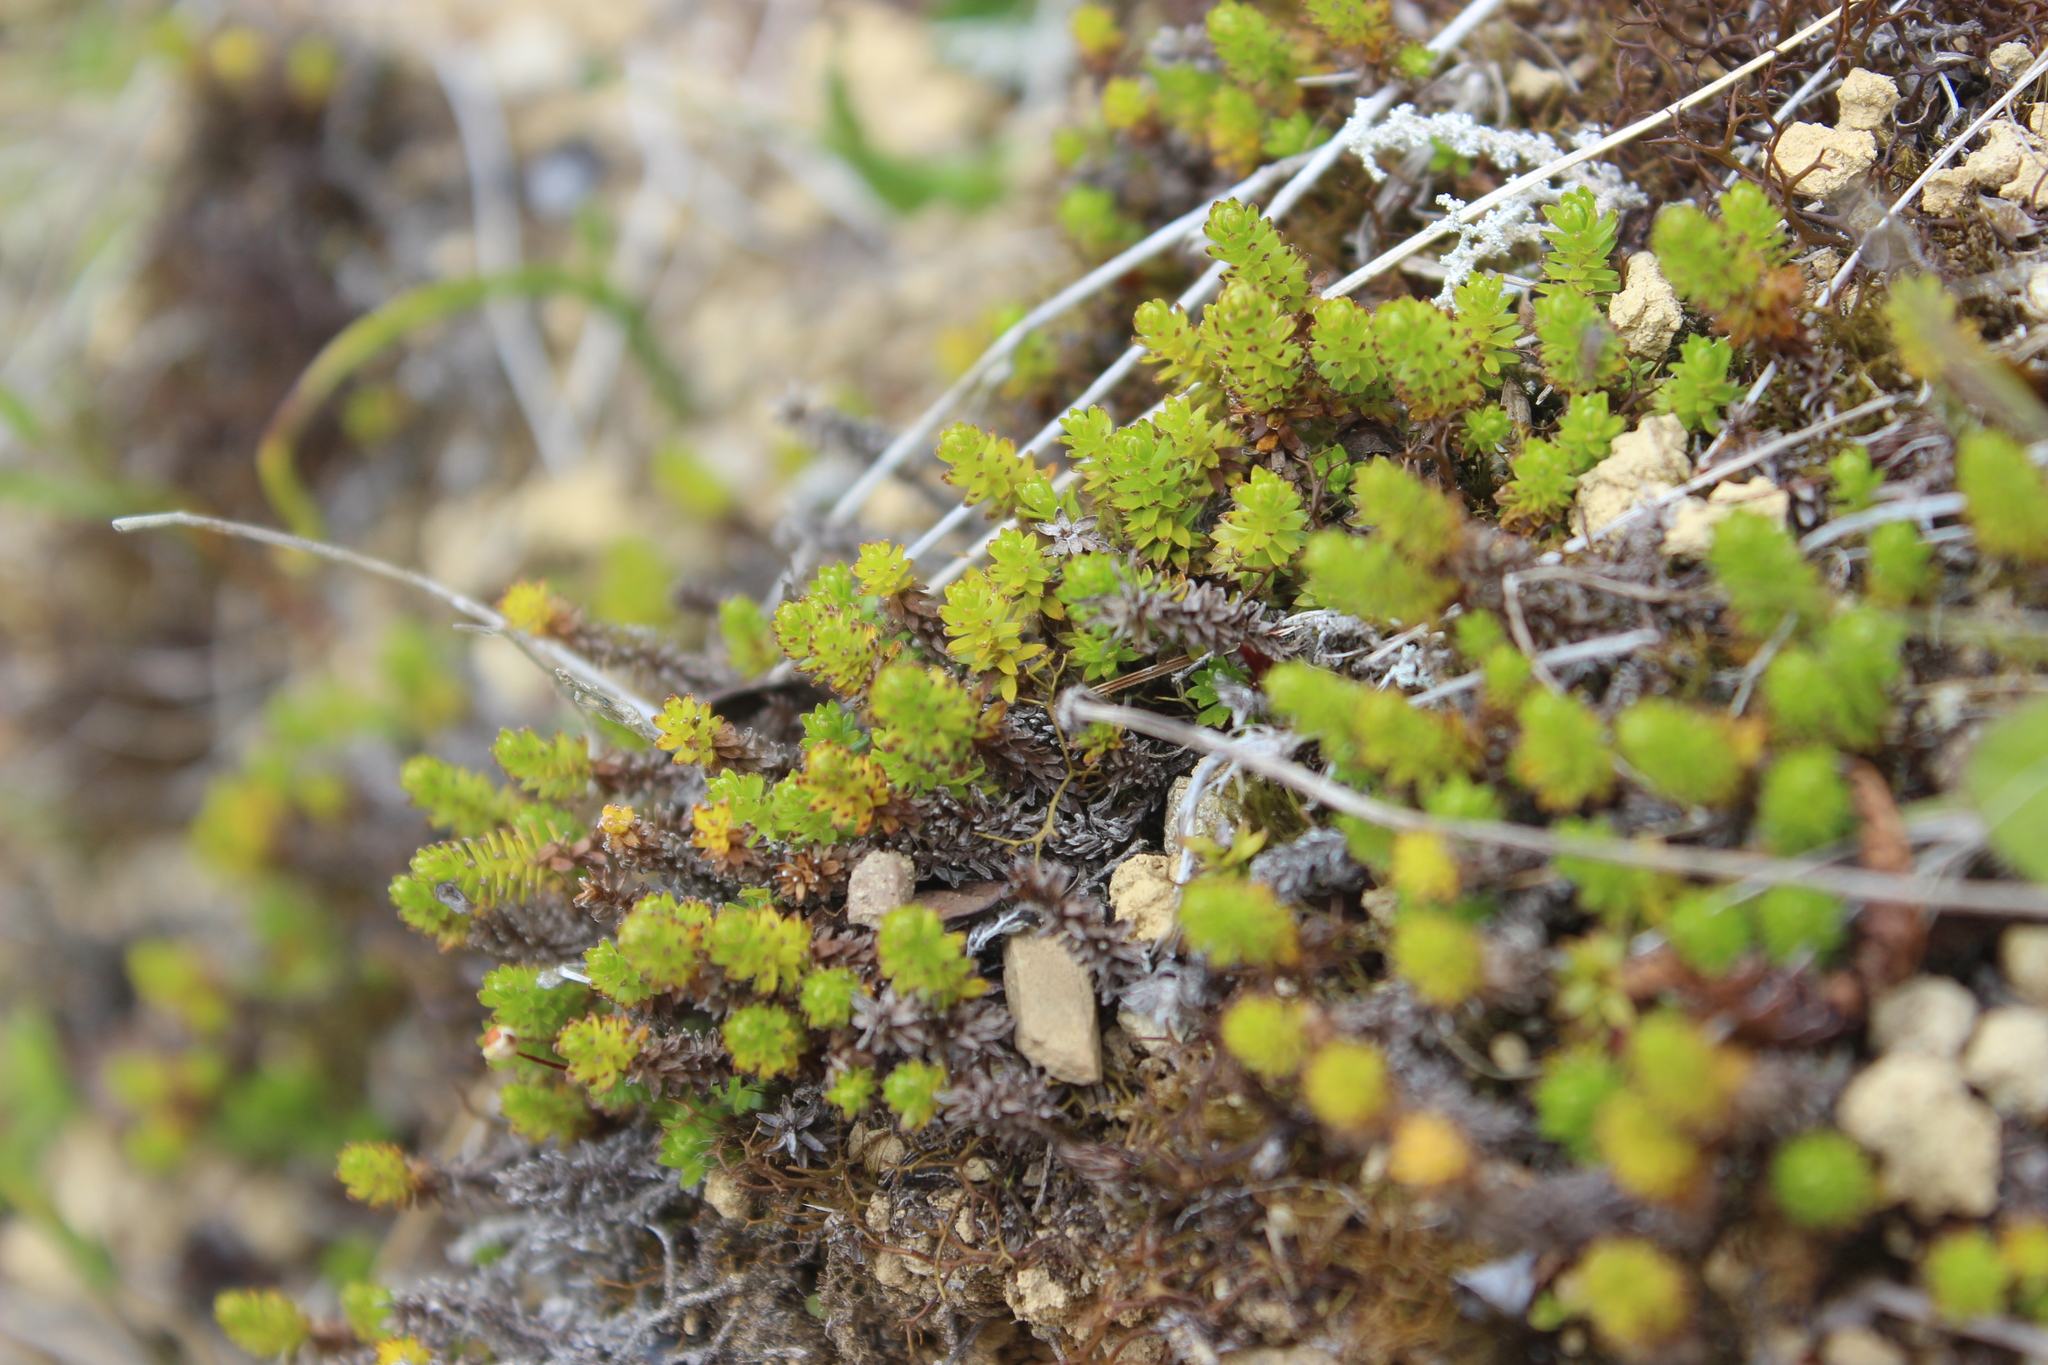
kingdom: Plantae
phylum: Tracheophyta
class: Magnoliopsida
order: Asterales
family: Asteraceae
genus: Raoulia
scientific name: Raoulia glabra
